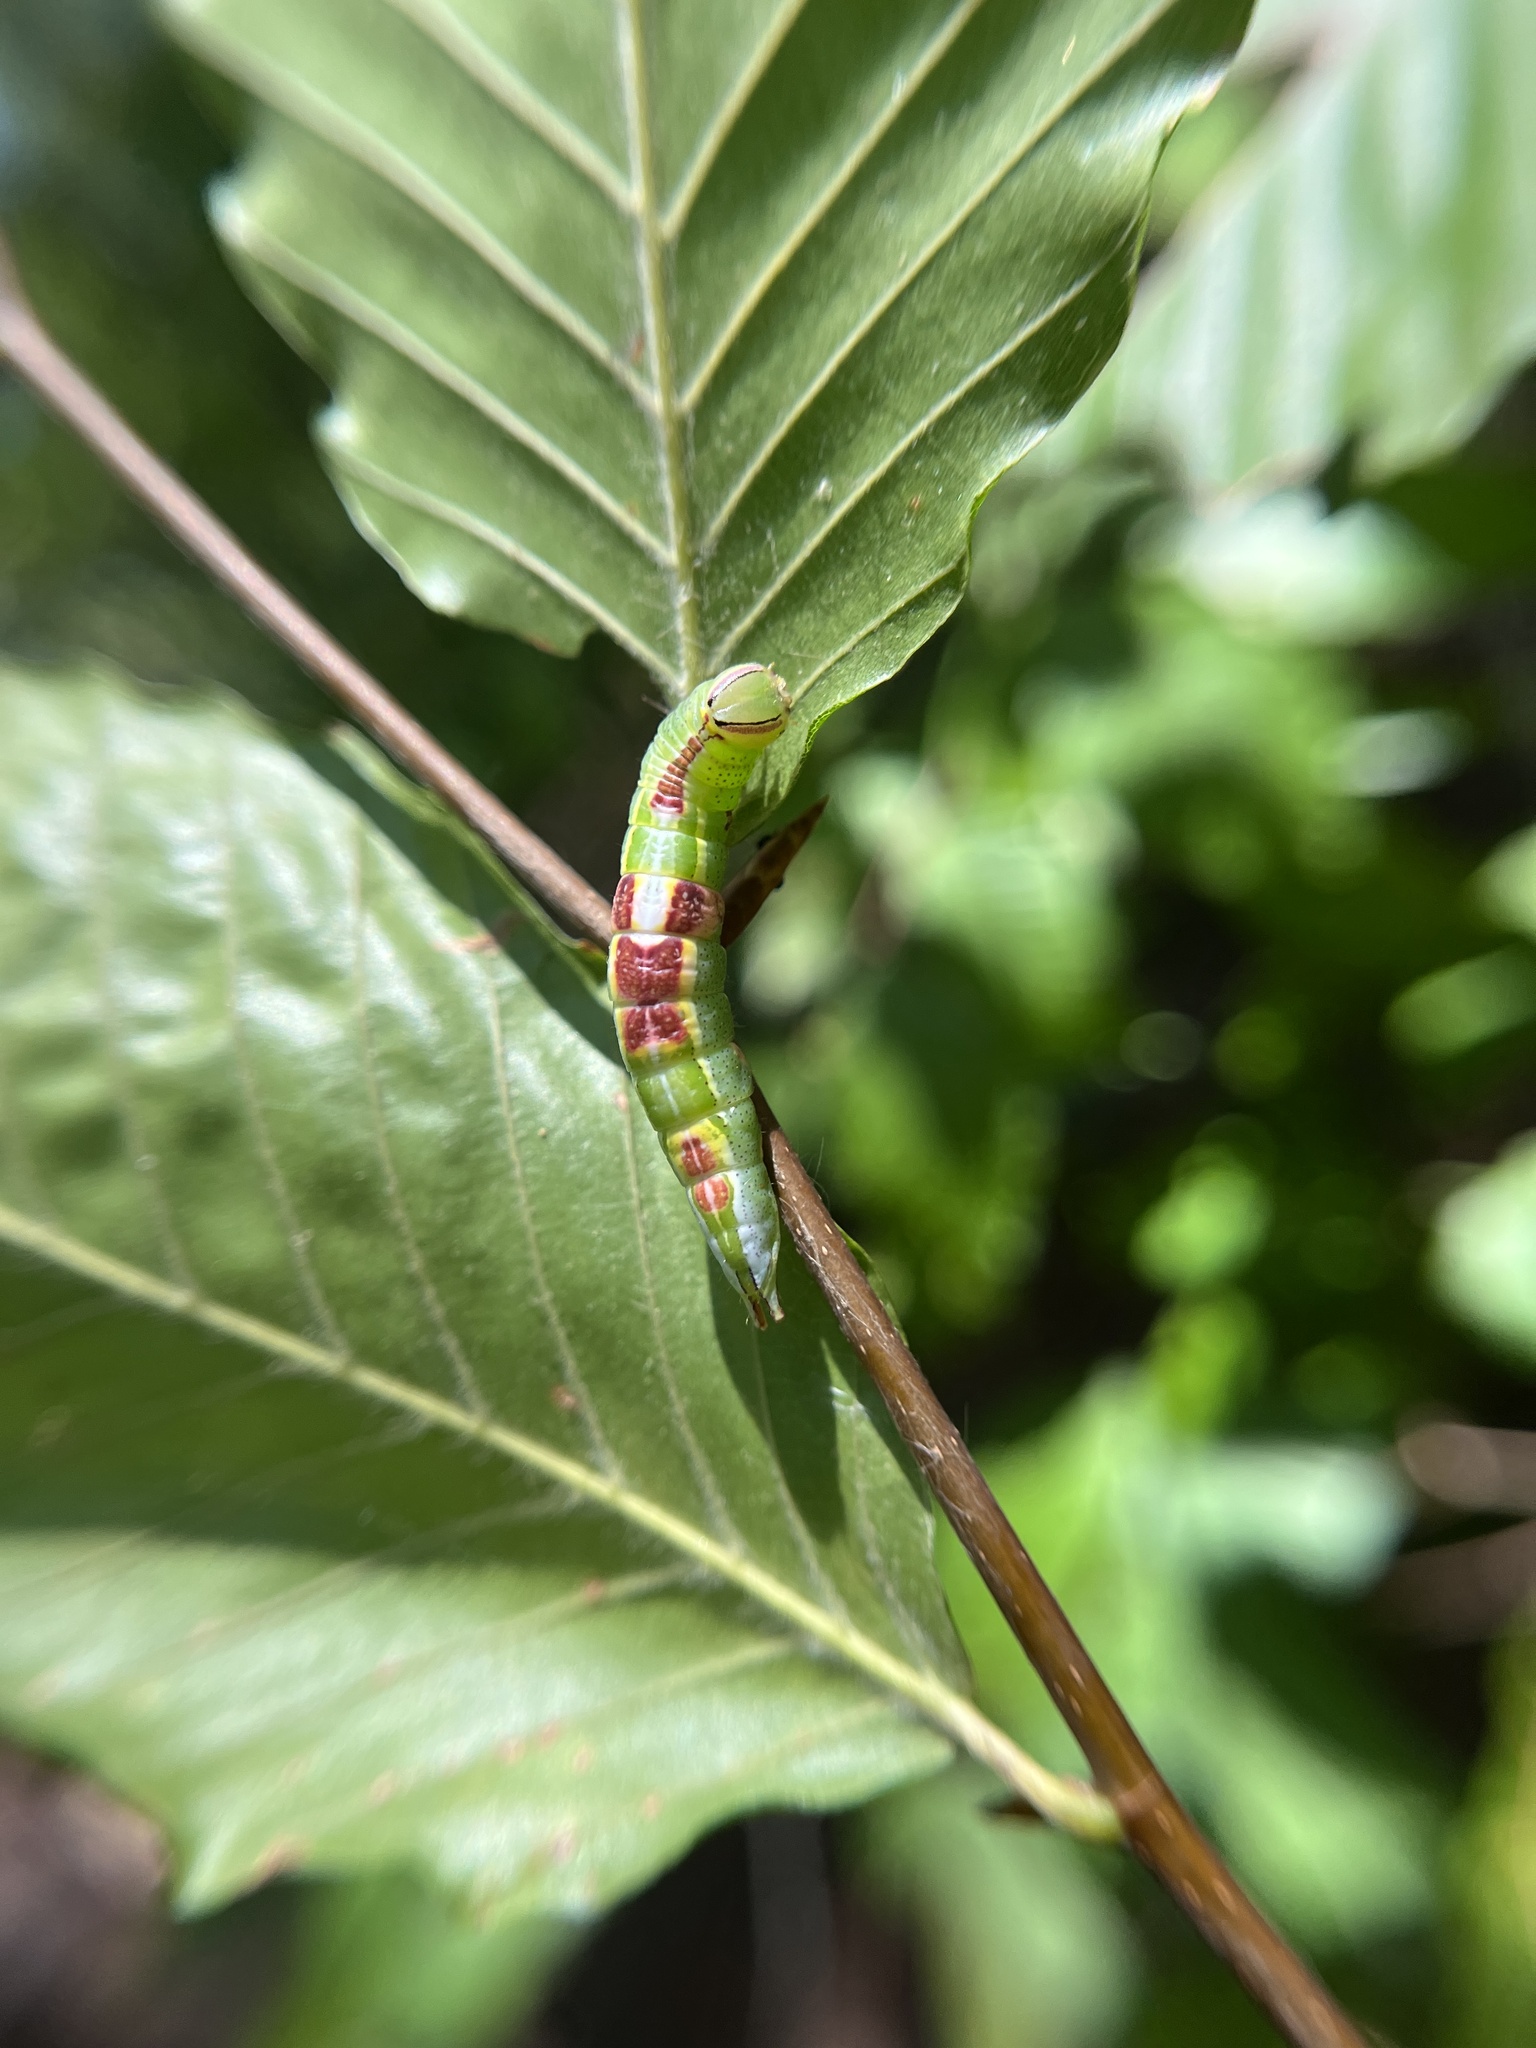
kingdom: Animalia
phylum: Arthropoda
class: Insecta
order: Lepidoptera
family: Notodontidae
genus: Disphragis
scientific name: Disphragis Cecrita guttivitta
